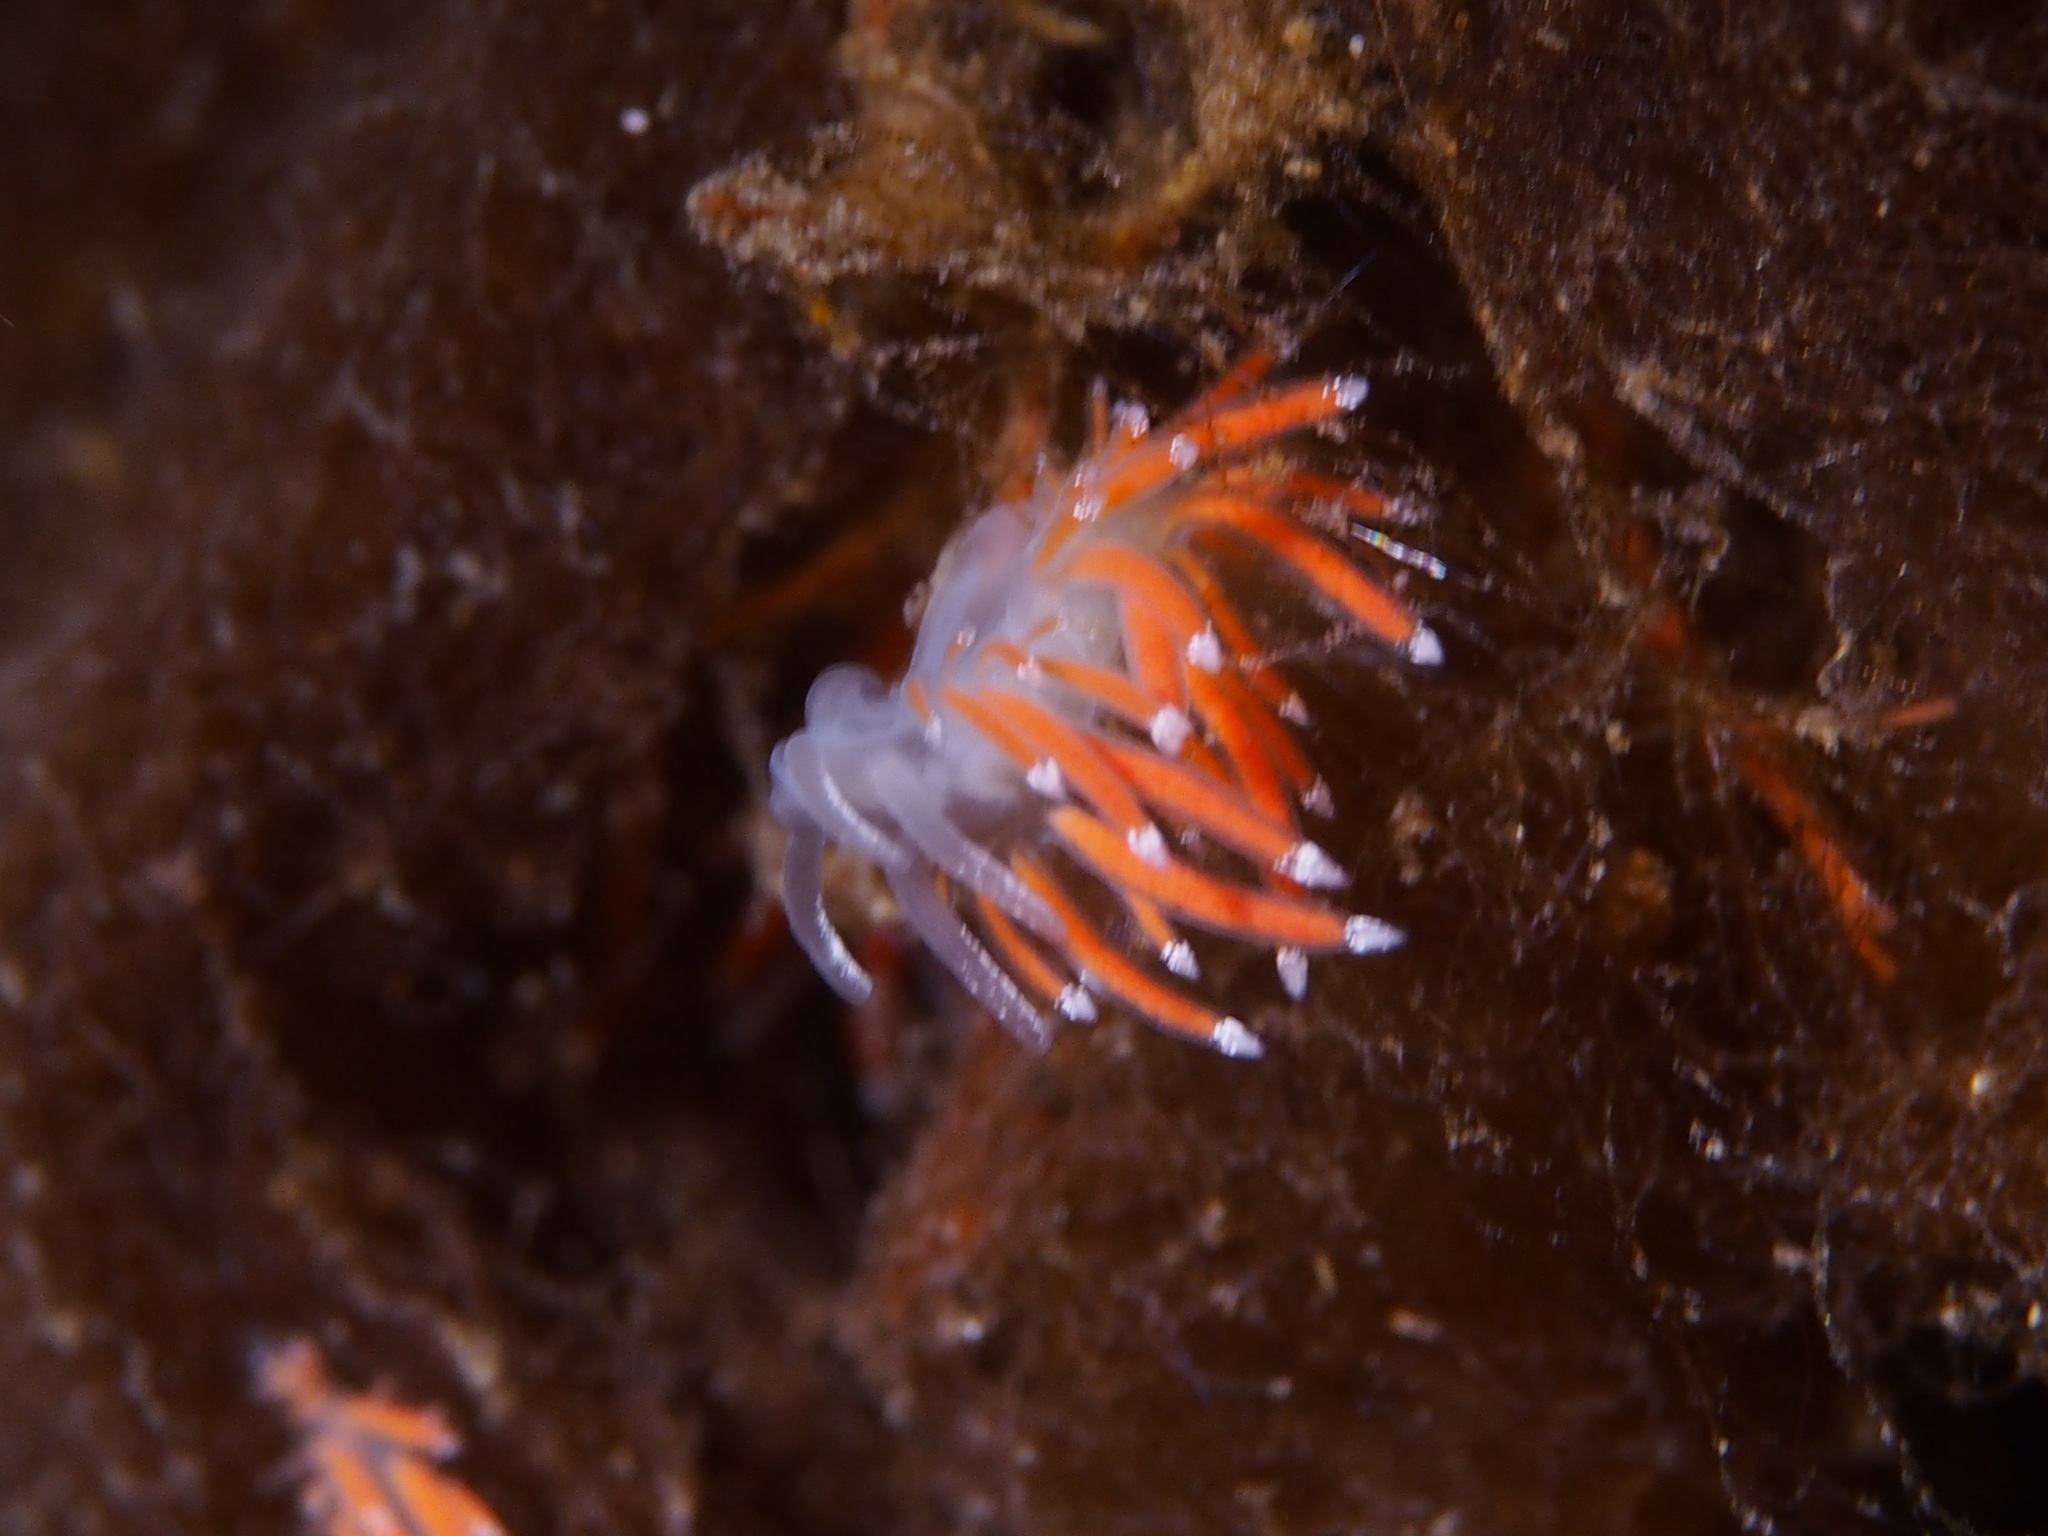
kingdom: Animalia
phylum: Mollusca
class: Gastropoda
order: Nudibranchia
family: Coryphellidae
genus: Coryphella
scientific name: Coryphella gracilis
